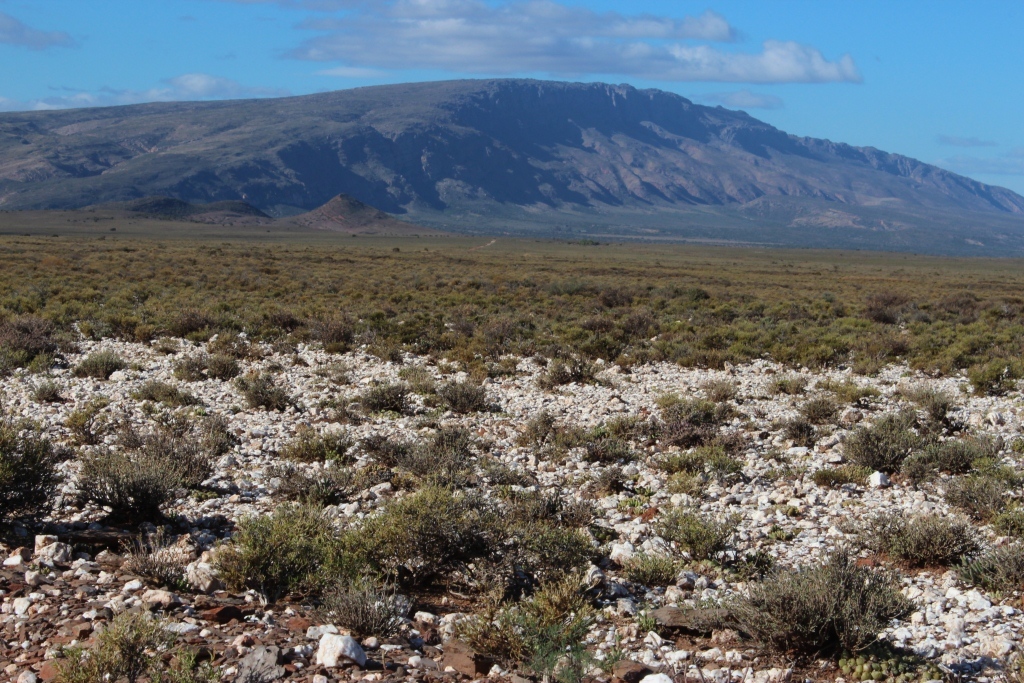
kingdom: Plantae
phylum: Tracheophyta
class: Magnoliopsida
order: Caryophyllales
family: Aizoaceae
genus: Gibbaeum
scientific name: Gibbaeum nuciforme
